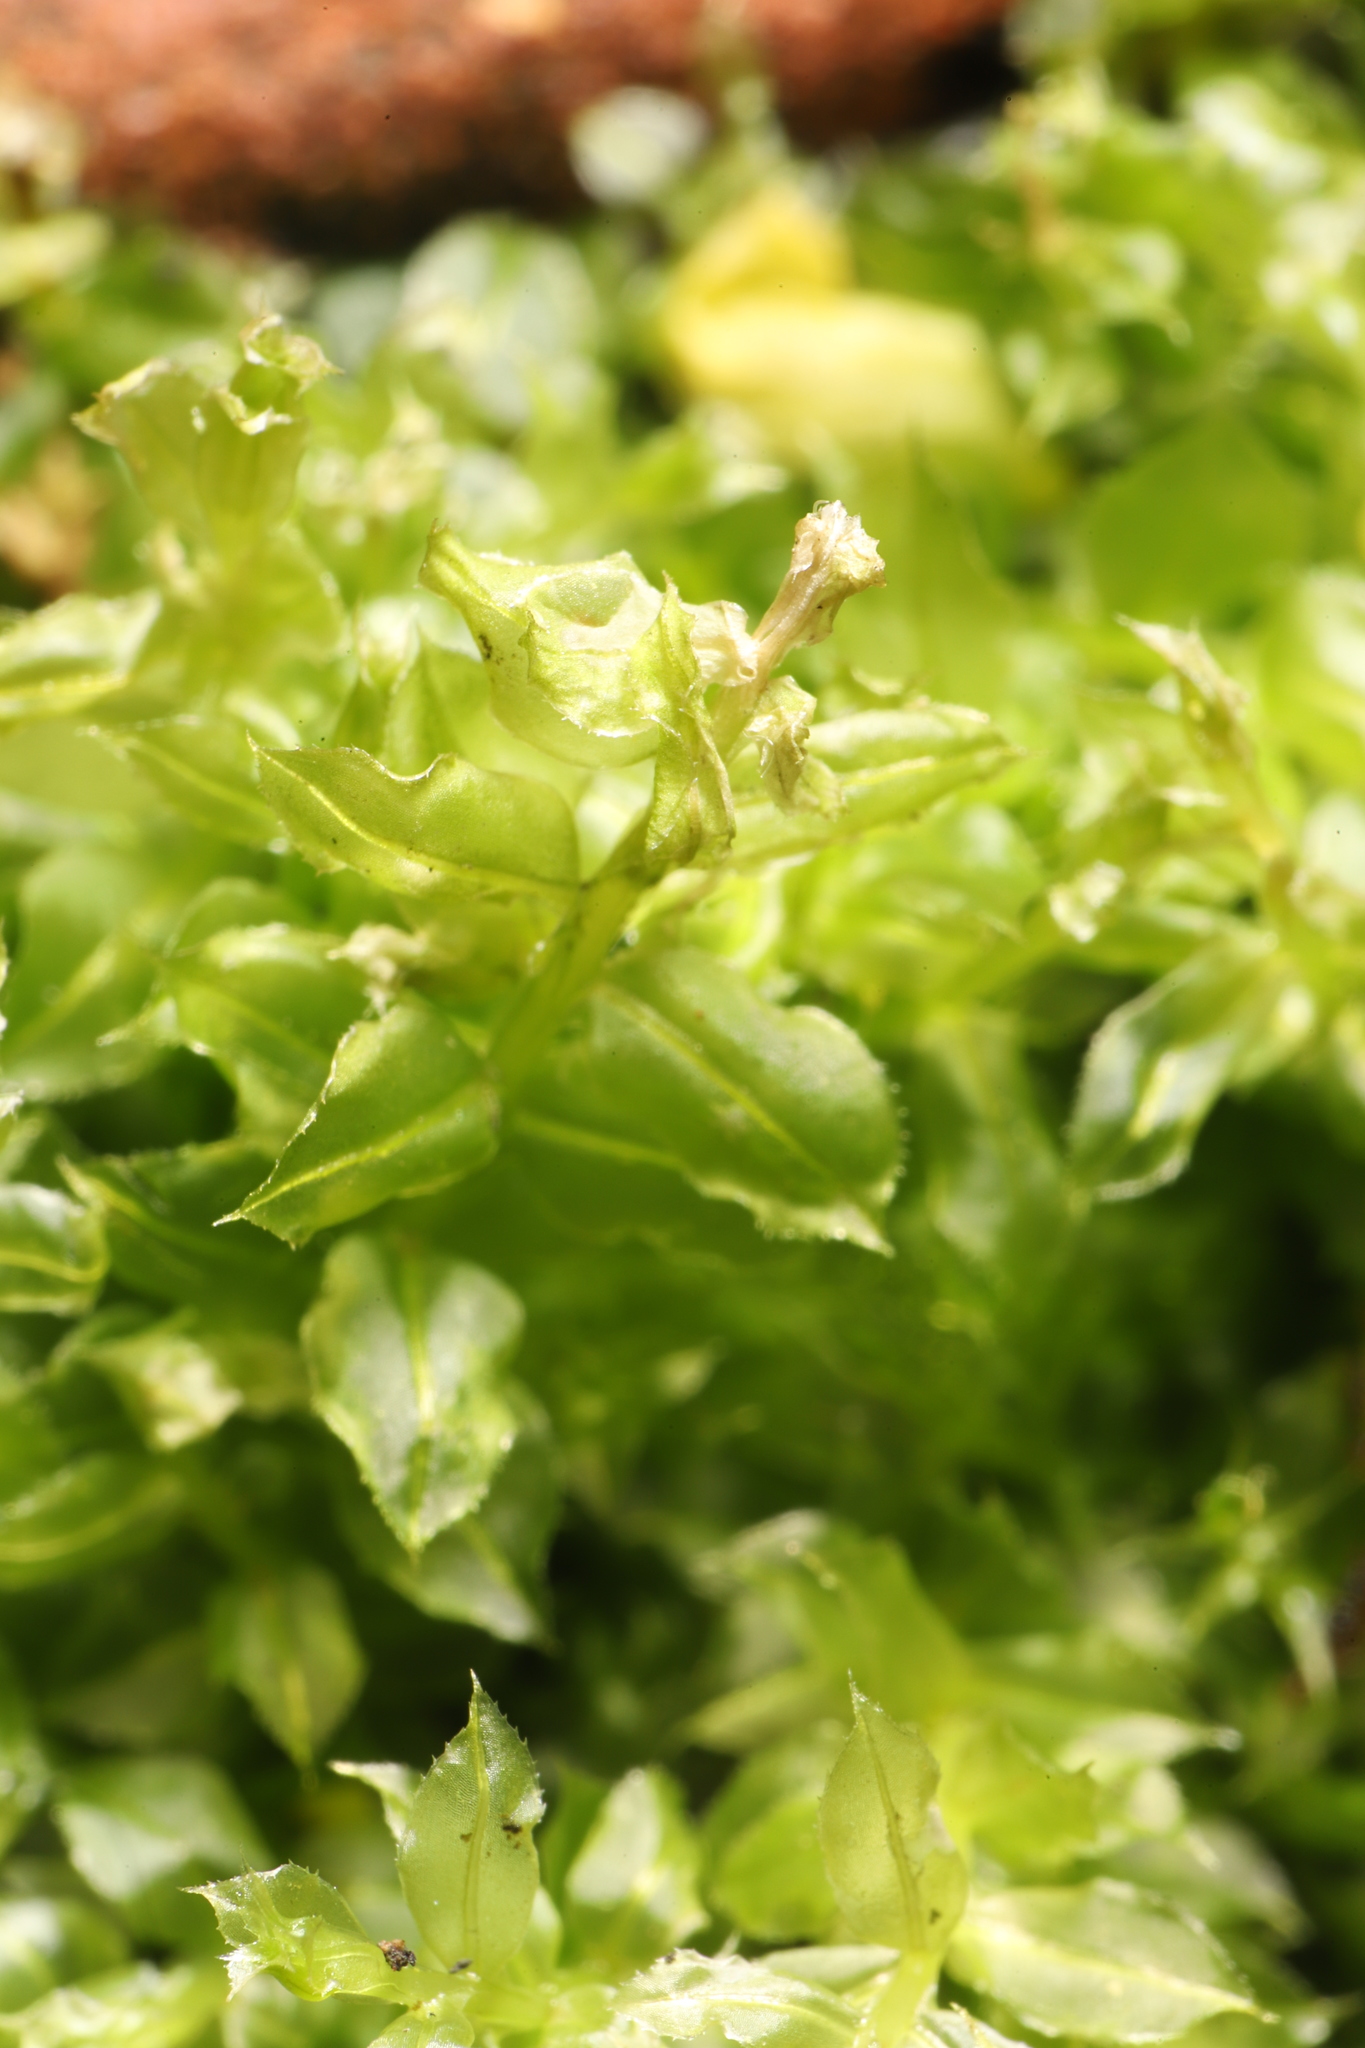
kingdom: Plantae
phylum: Bryophyta
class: Bryopsida
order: Bryales
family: Mniaceae
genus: Plagiomnium
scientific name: Plagiomnium cuspidatum
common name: Woodsy leafy moss
